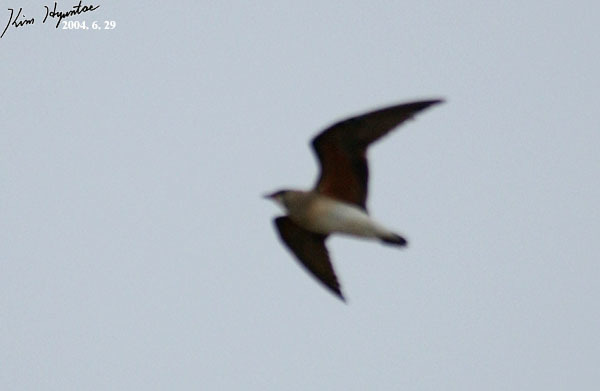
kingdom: Animalia
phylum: Chordata
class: Aves
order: Charadriiformes
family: Glareolidae
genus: Glareola
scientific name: Glareola maldivarum
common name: Oriental pratincole
